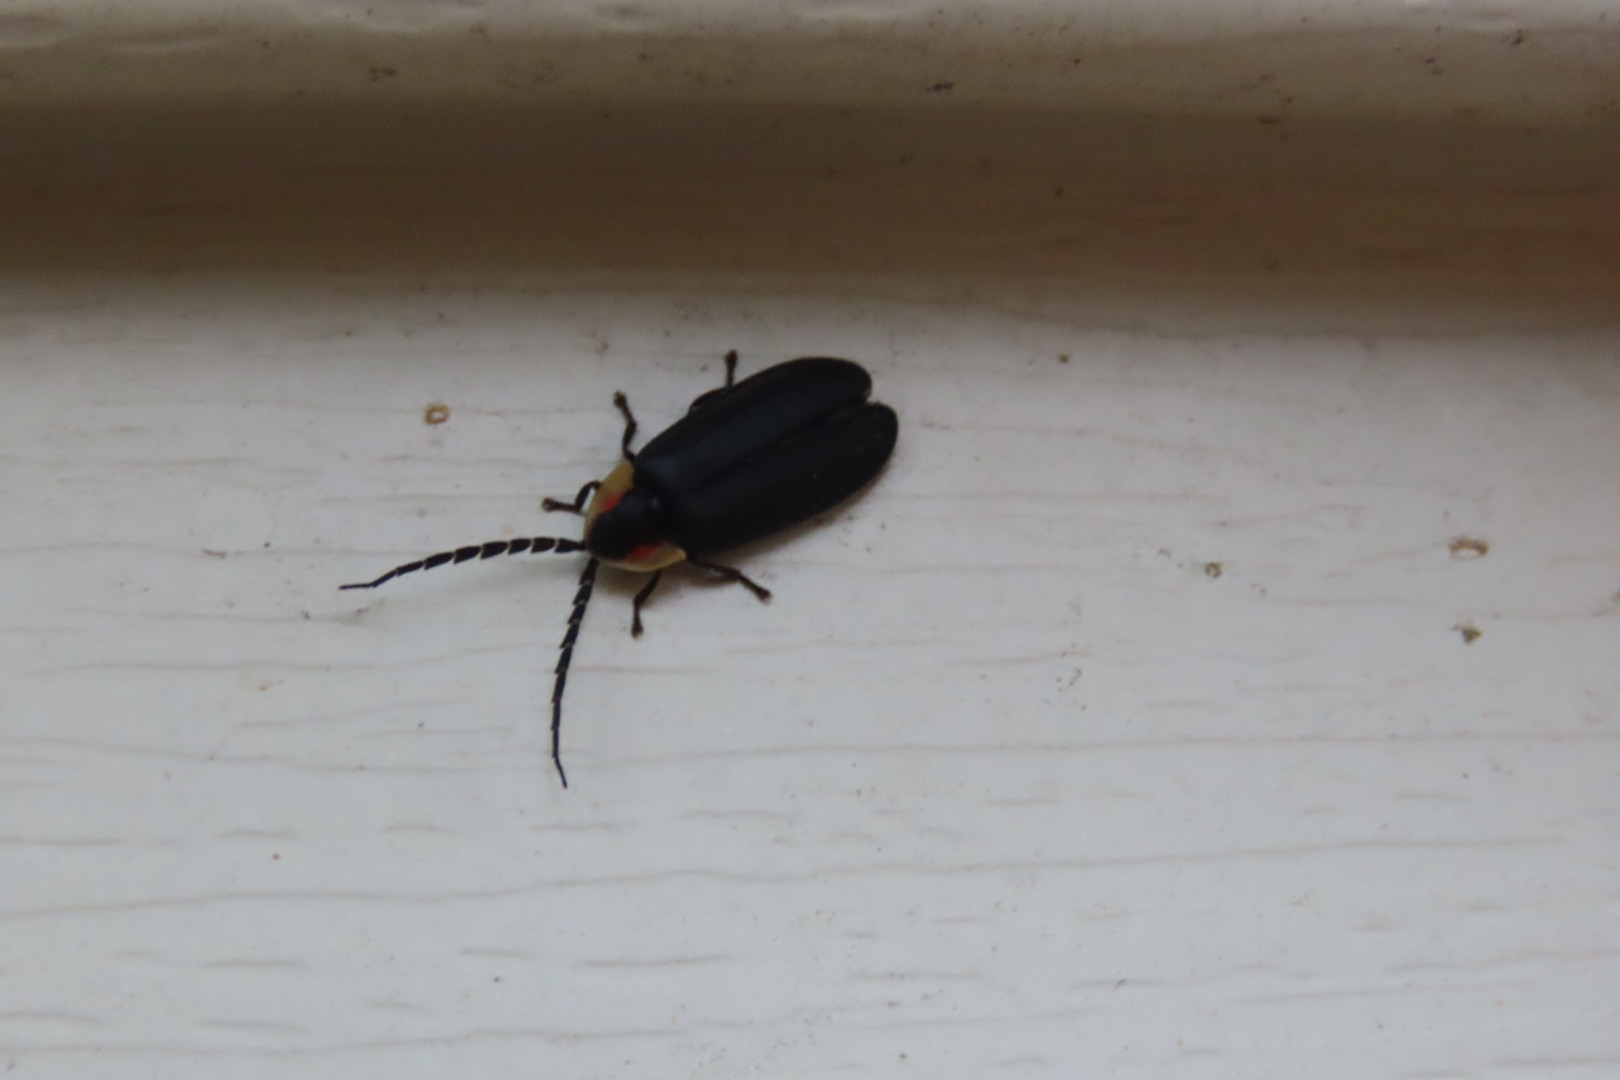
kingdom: Animalia
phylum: Arthropoda
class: Insecta
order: Coleoptera
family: Lampyridae
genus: Lucidota
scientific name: Lucidota atra
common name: Black firefly
